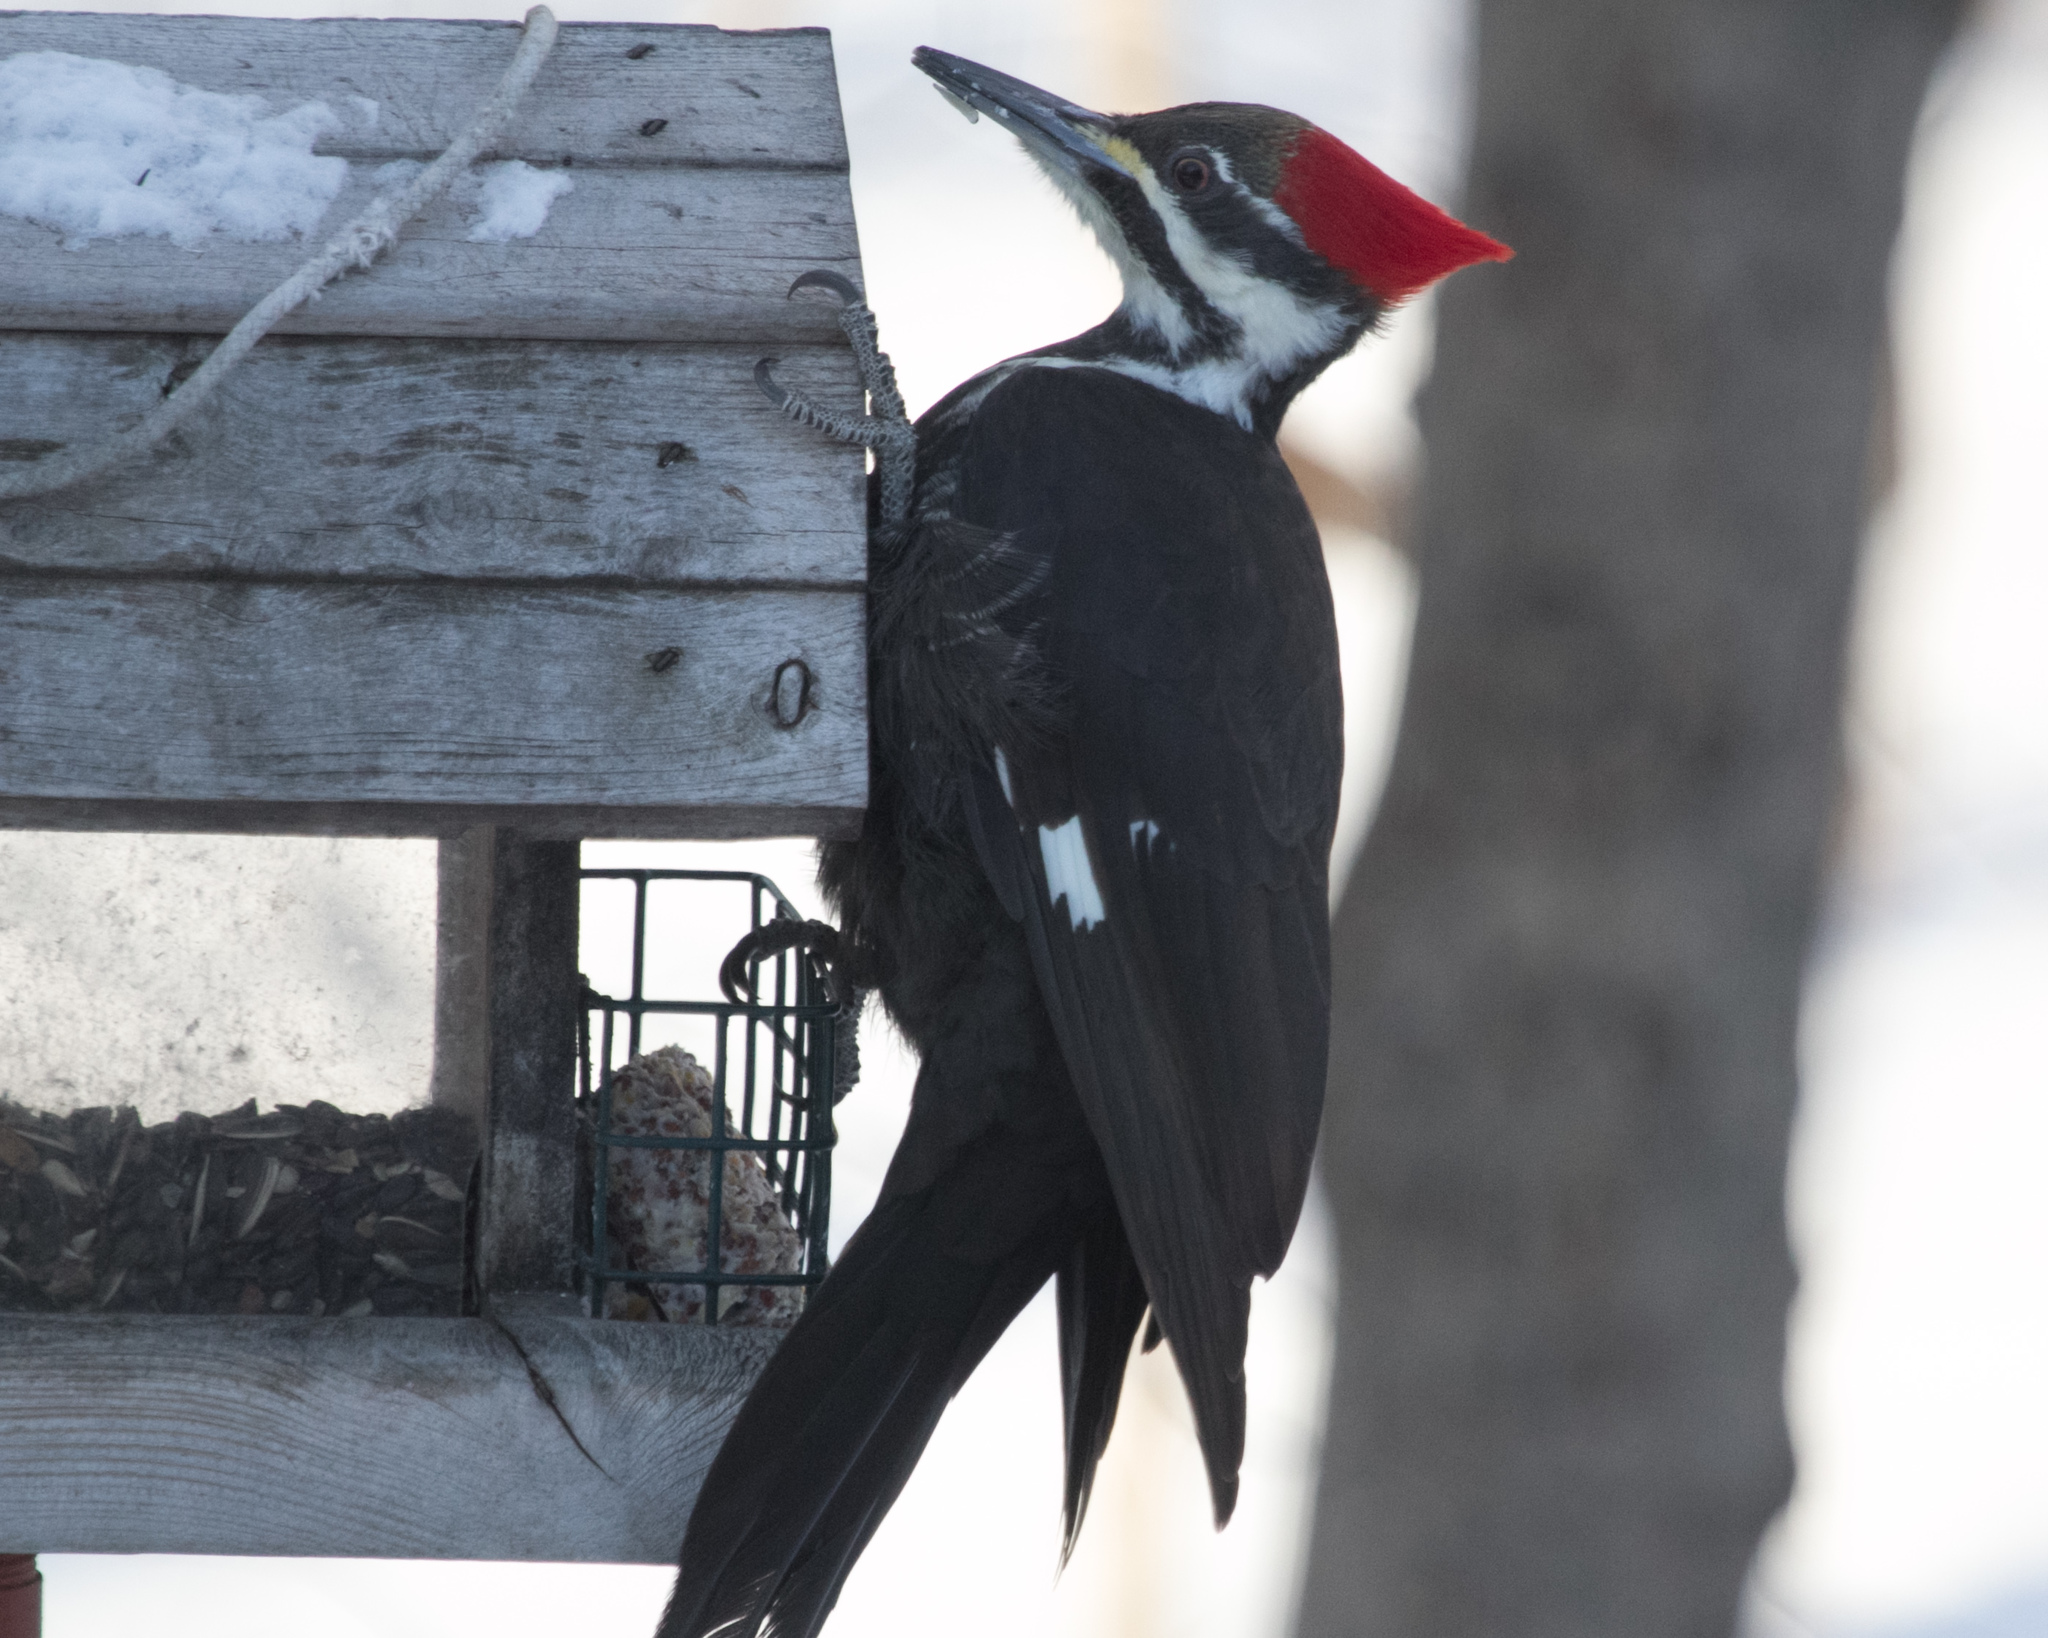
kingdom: Animalia
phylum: Chordata
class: Aves
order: Piciformes
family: Picidae
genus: Dryocopus
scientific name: Dryocopus pileatus
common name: Pileated woodpecker
